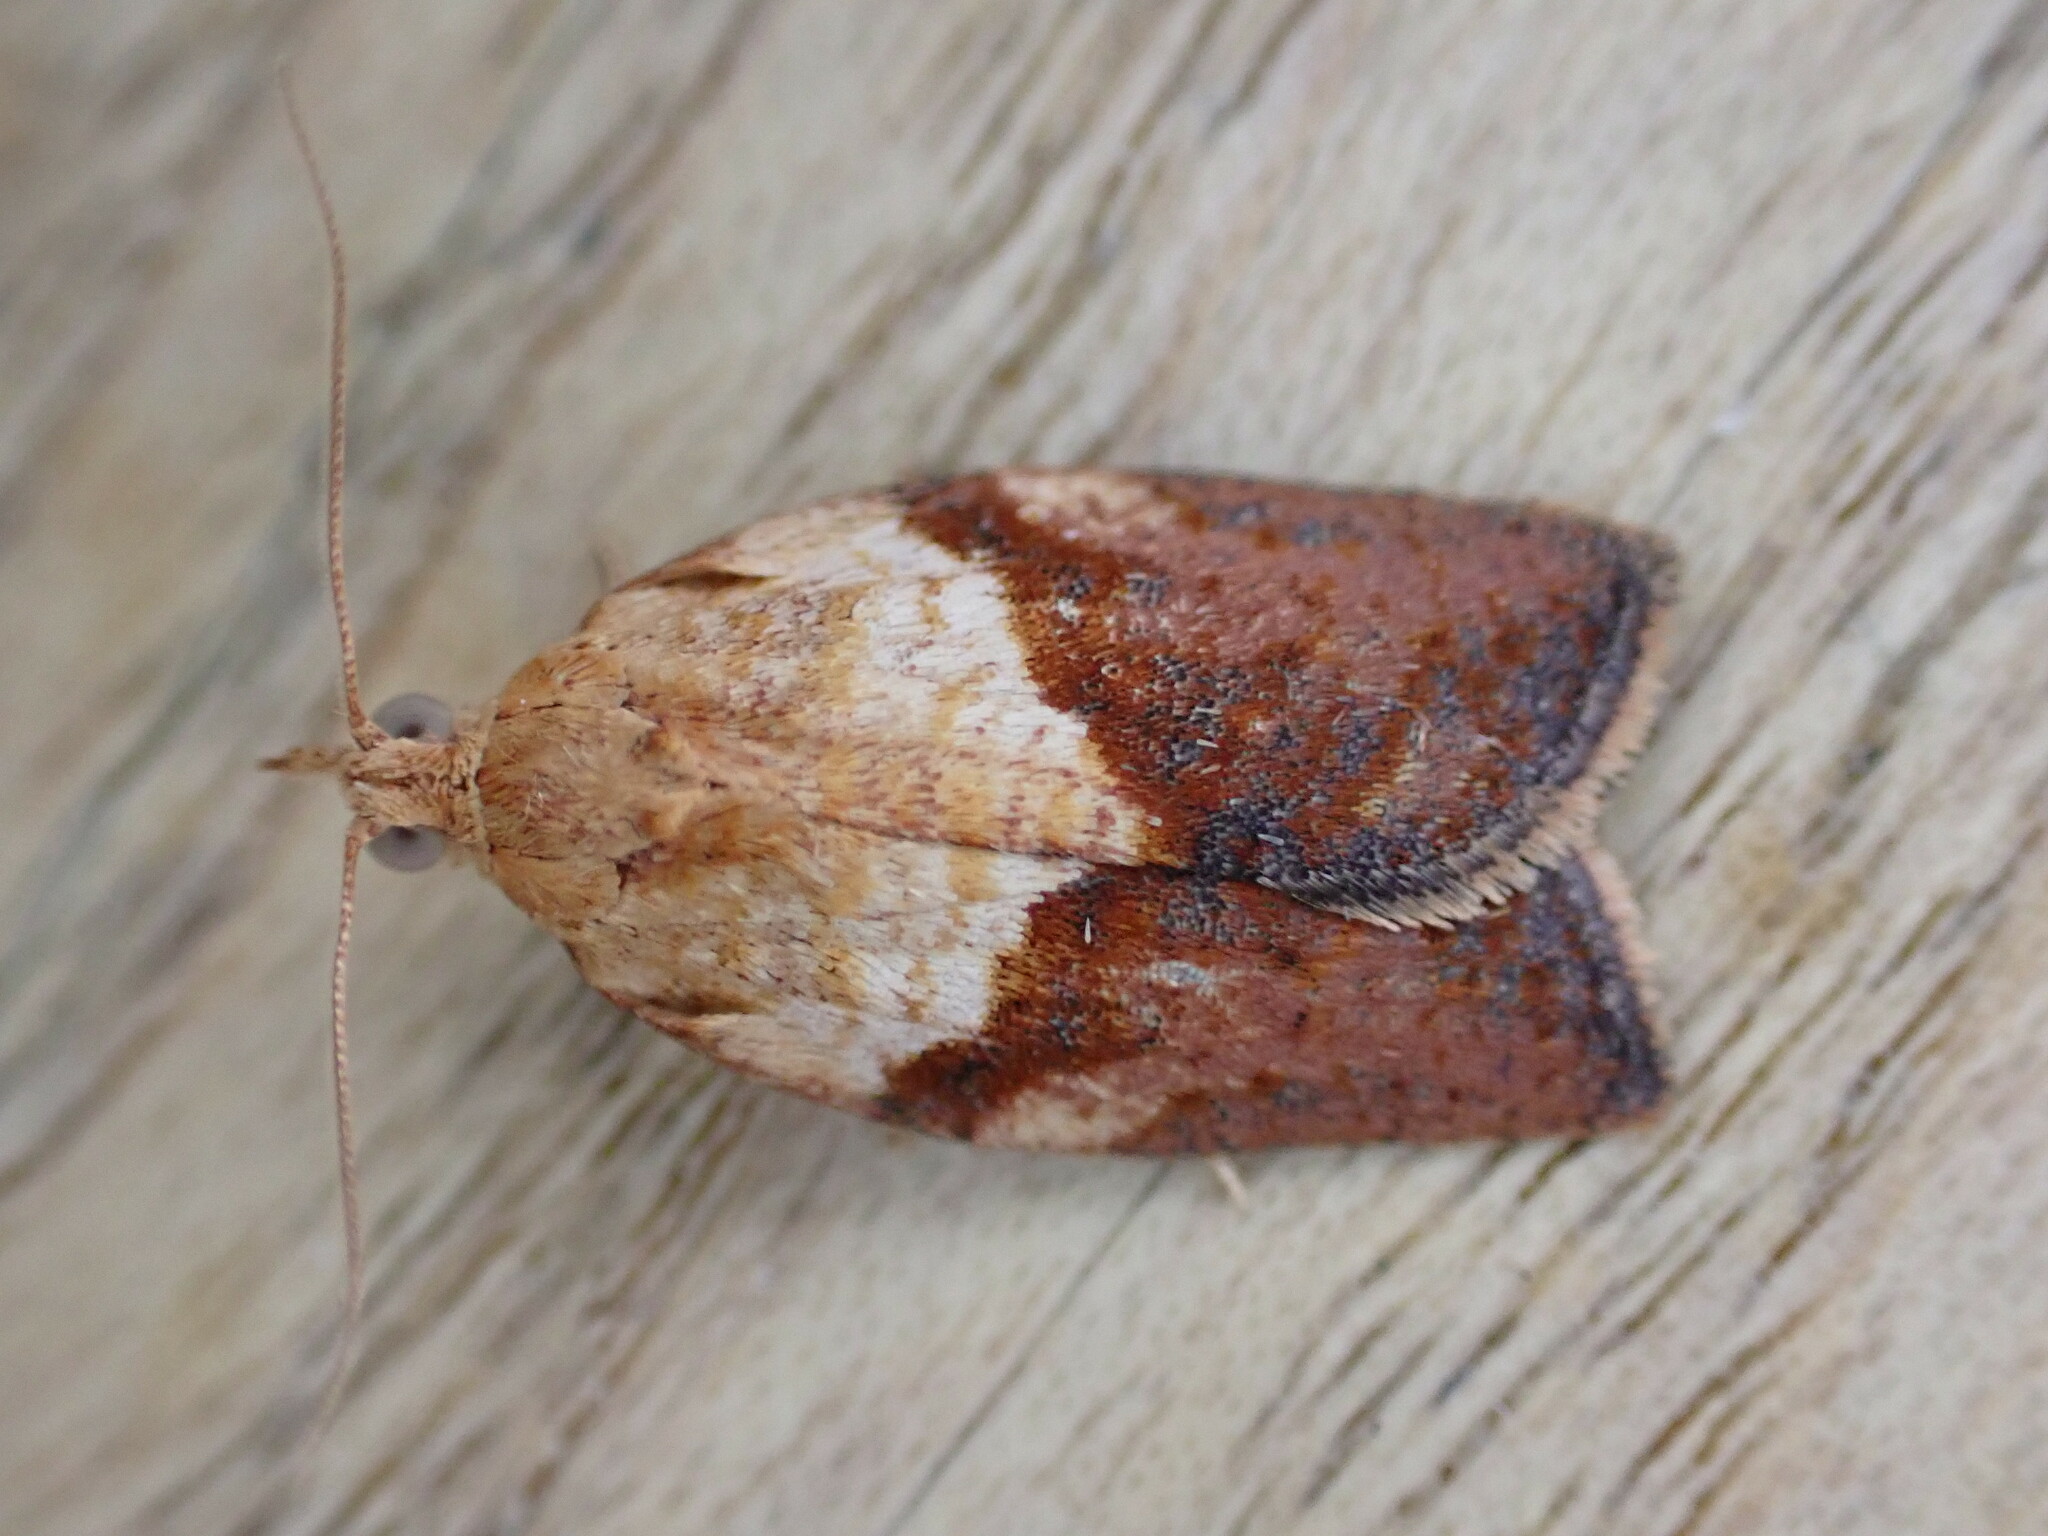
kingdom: Animalia
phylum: Arthropoda
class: Insecta
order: Lepidoptera
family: Tortricidae
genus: Epiphyas
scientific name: Epiphyas postvittana
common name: Light brown apple moth
